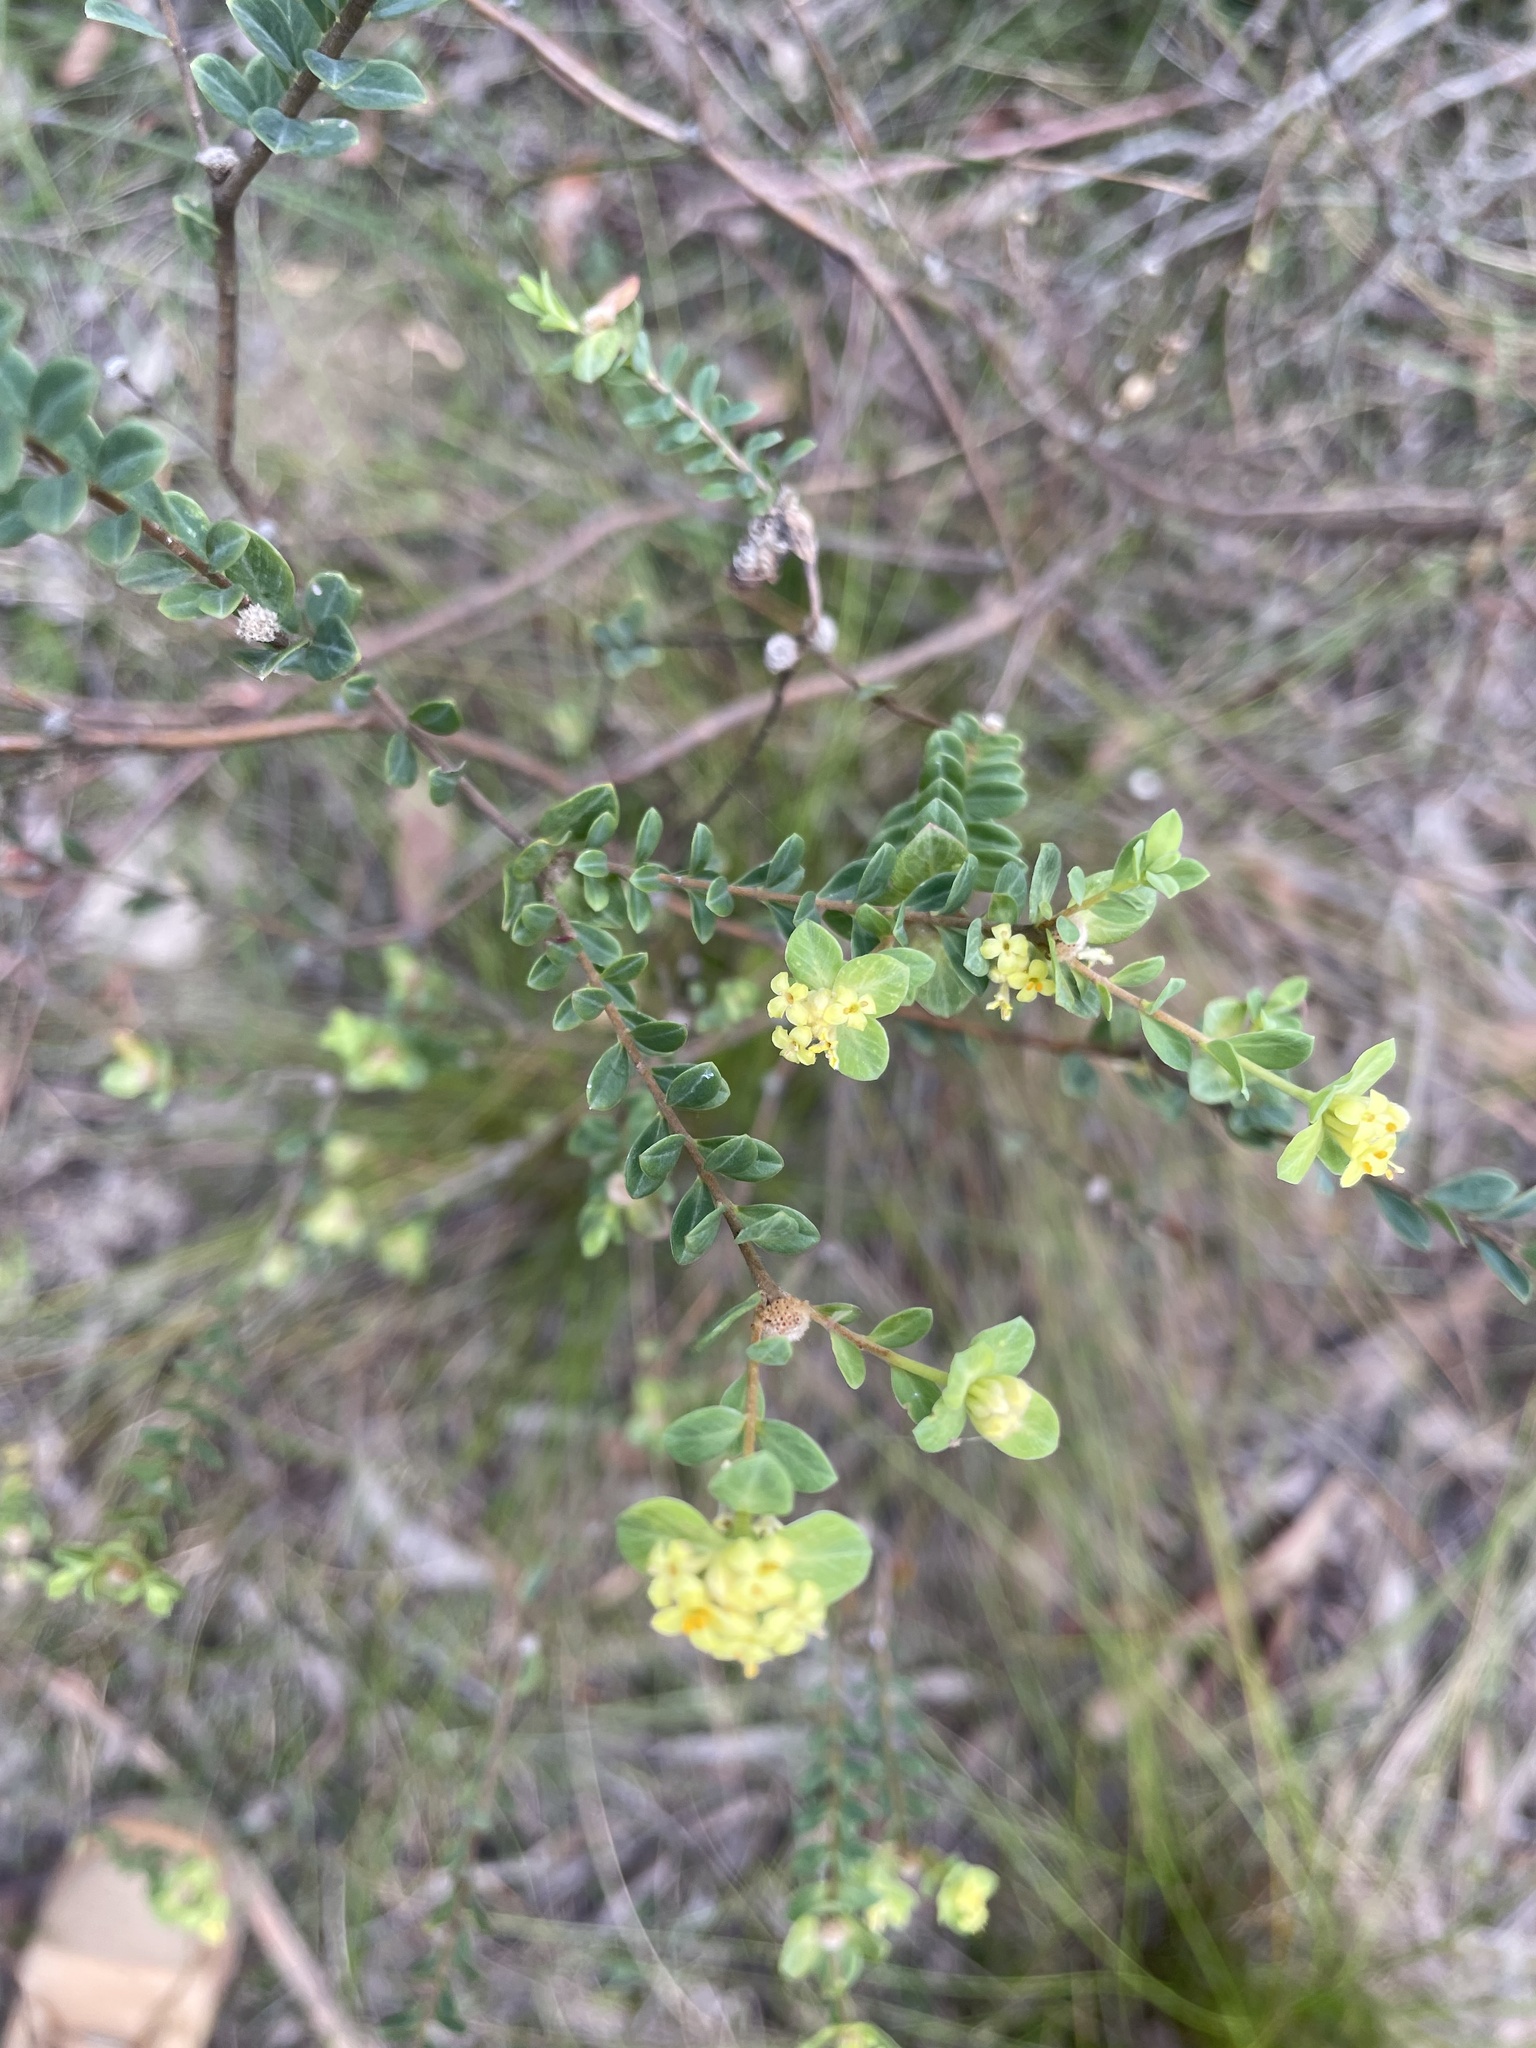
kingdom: Plantae
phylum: Tracheophyta
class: Magnoliopsida
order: Malvales
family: Thymelaeaceae
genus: Pimelea
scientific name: Pimelea flava
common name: Yellow riceflower
